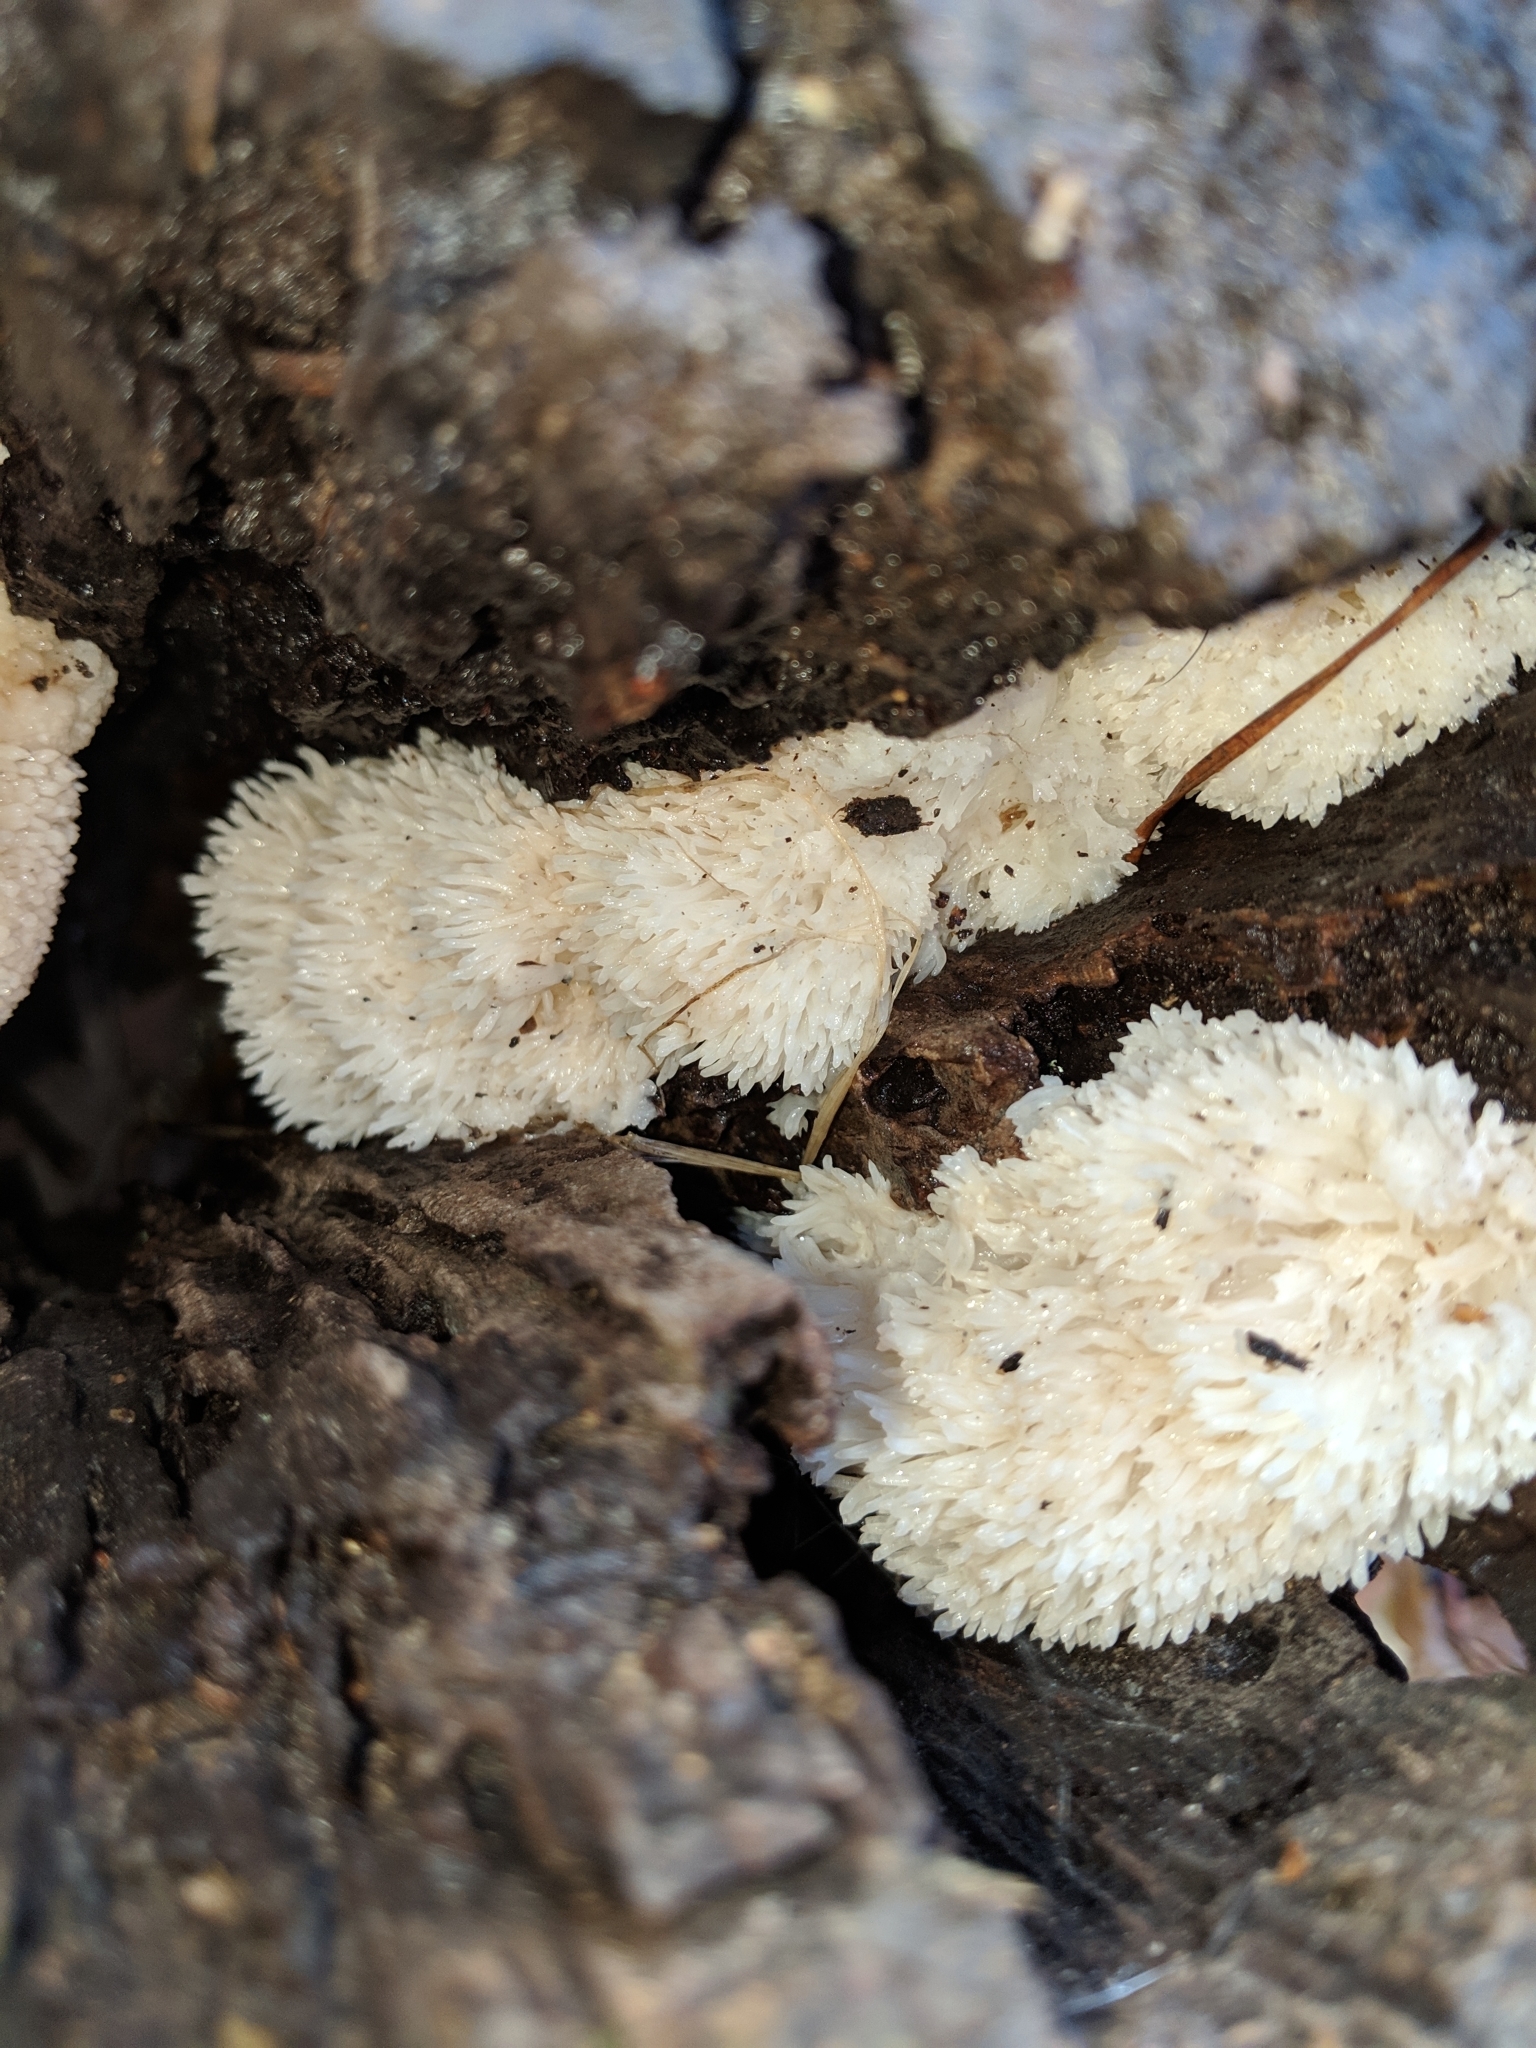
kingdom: Fungi
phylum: Basidiomycota
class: Agaricomycetes
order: Russulales
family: Hericiaceae
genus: Hericium
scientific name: Hericium erinaceus
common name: Bearded tooth
